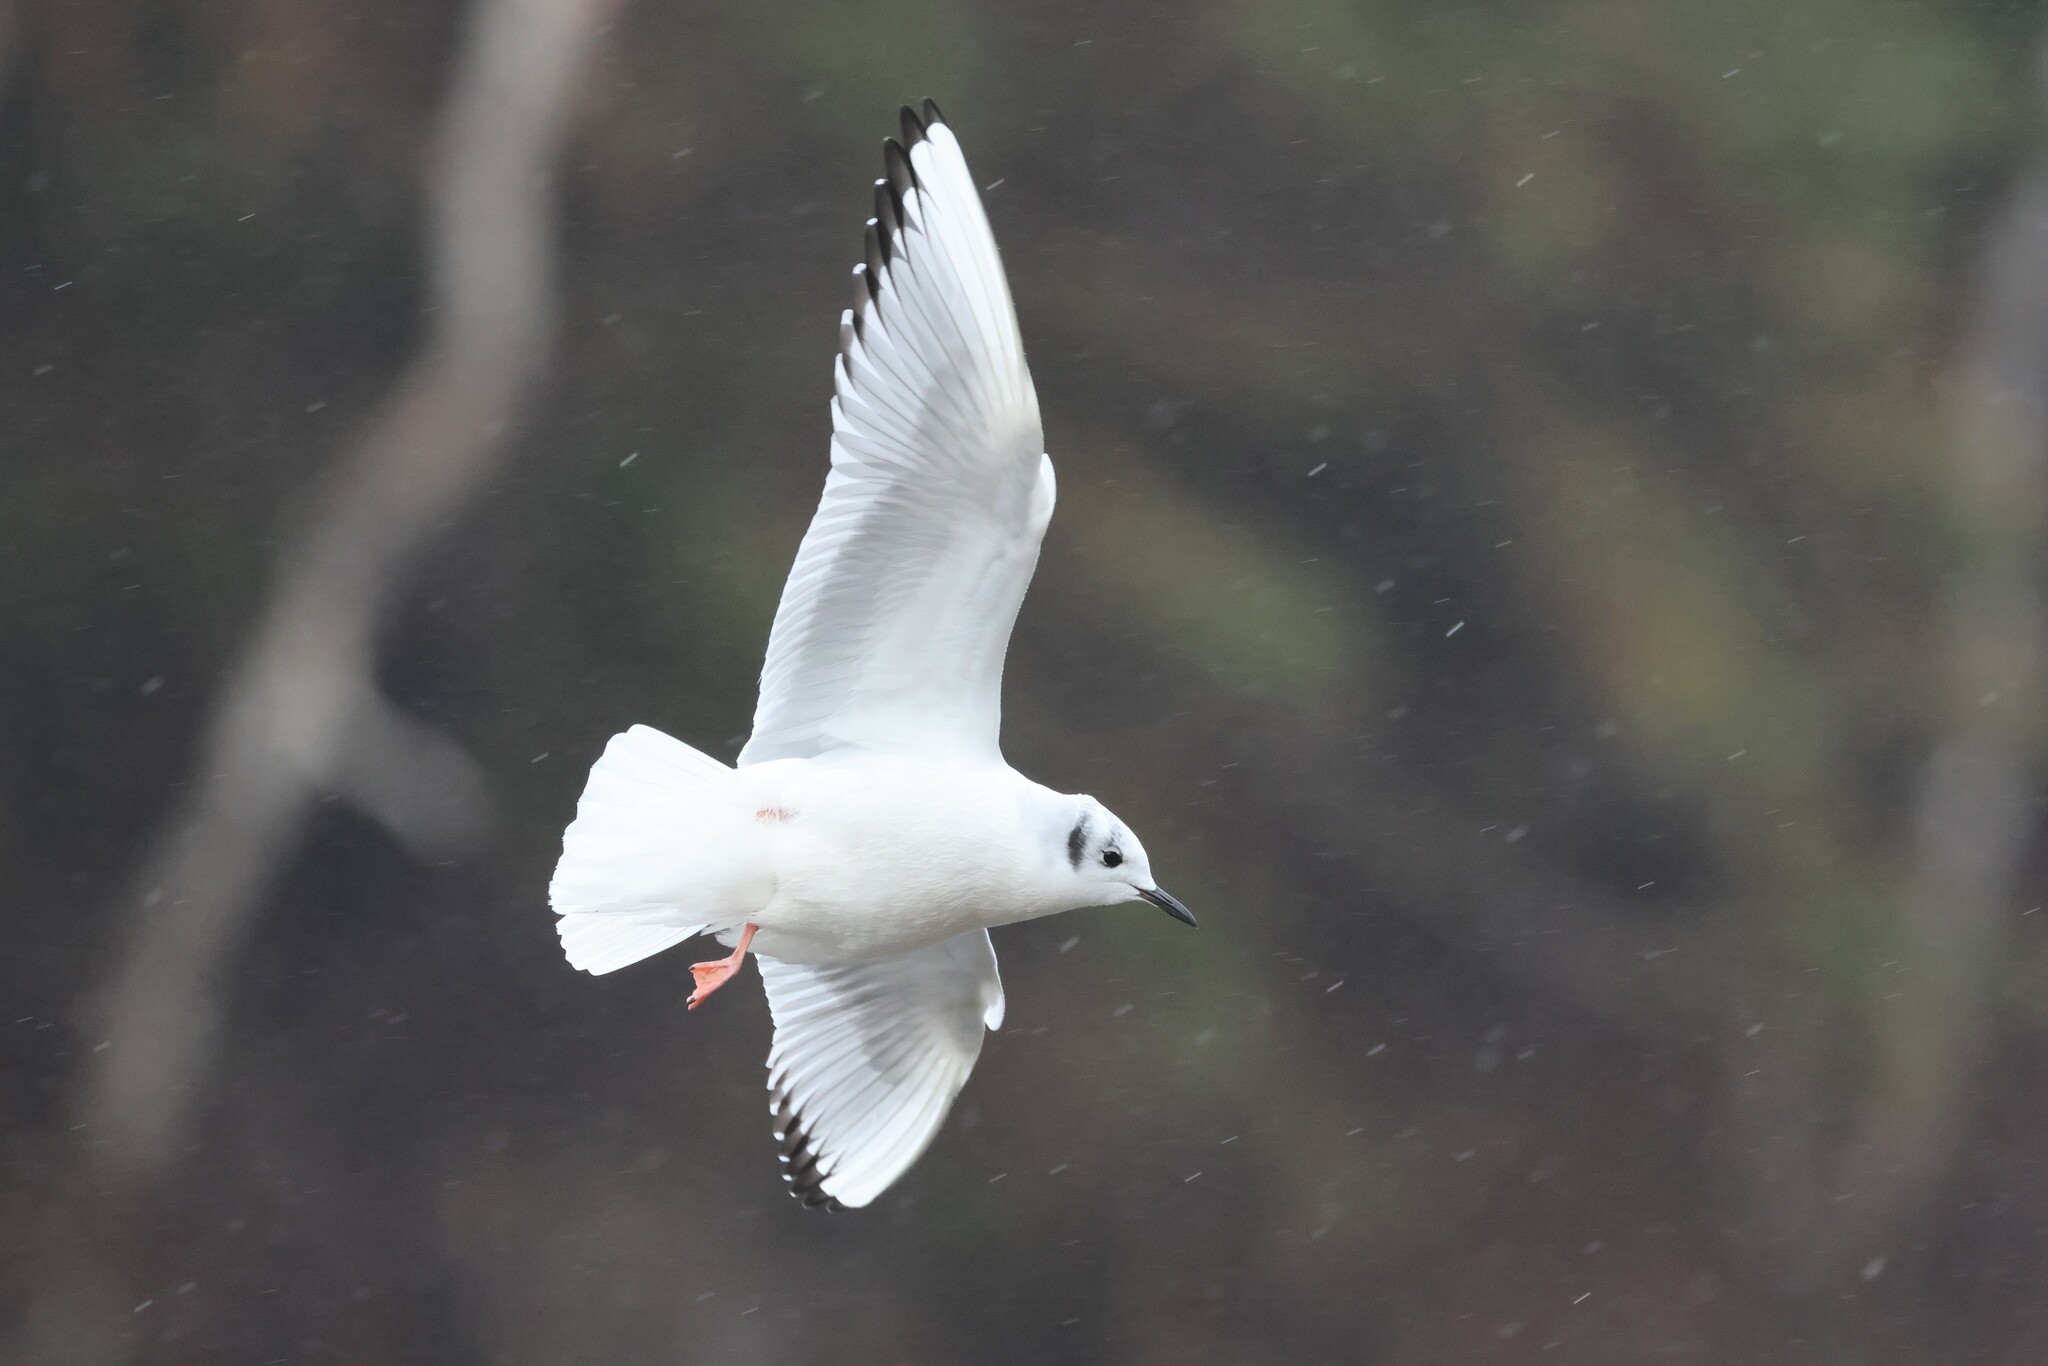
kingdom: Animalia
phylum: Chordata
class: Aves
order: Charadriiformes
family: Laridae
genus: Chroicocephalus
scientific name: Chroicocephalus philadelphia
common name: Bonaparte's gull
